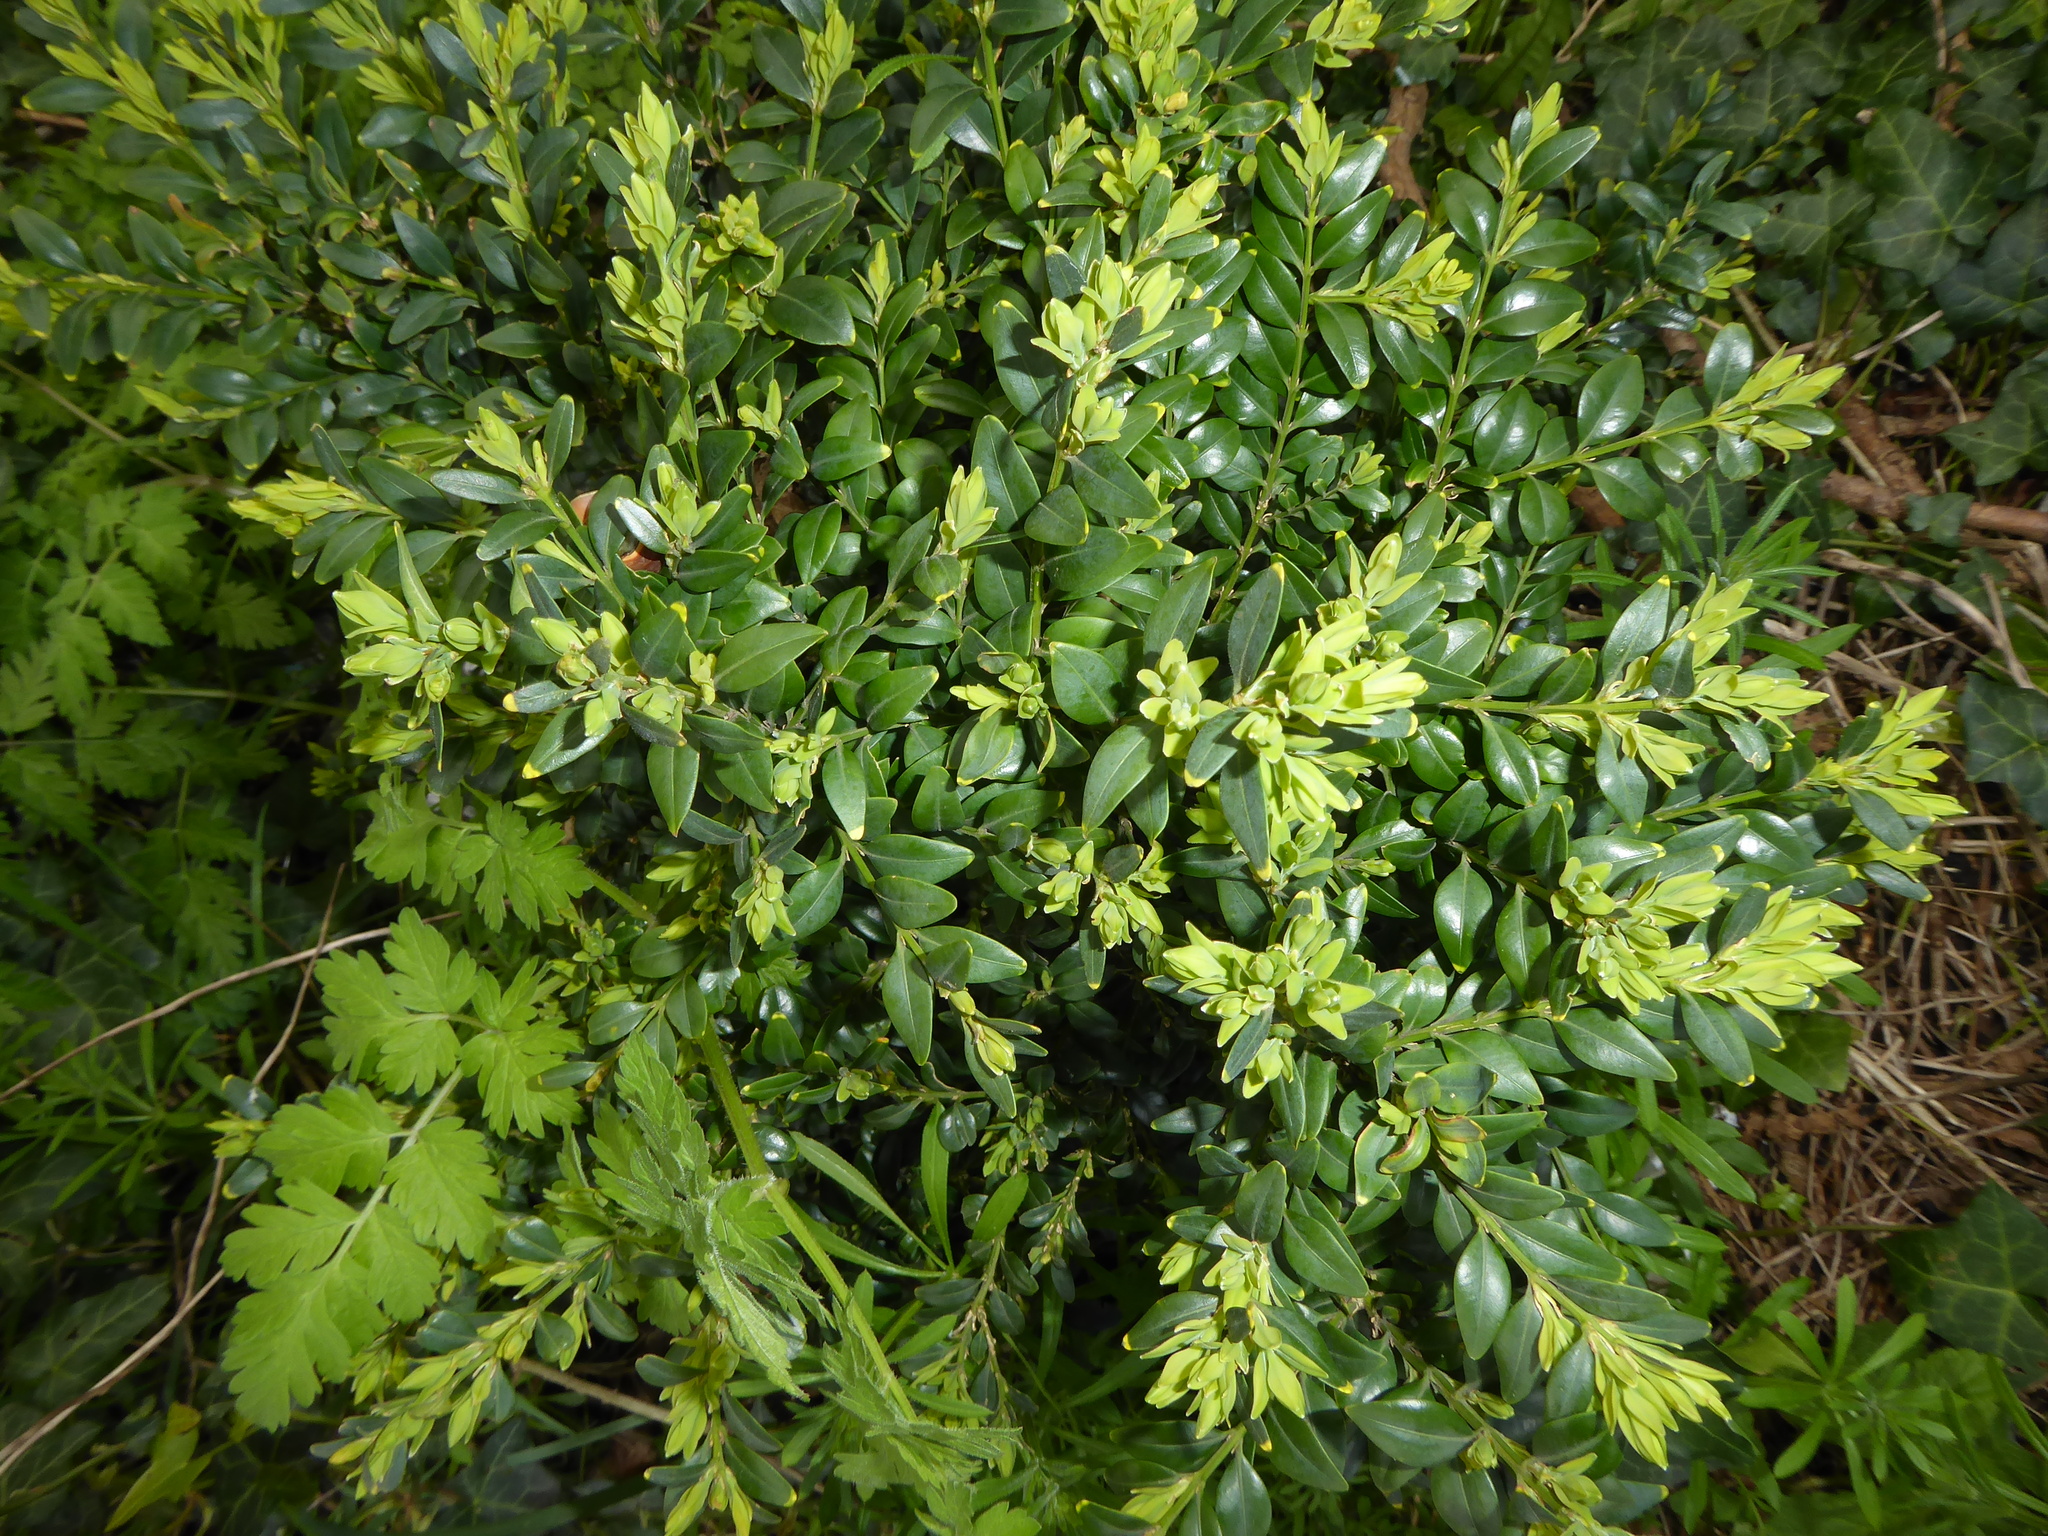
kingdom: Plantae
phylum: Tracheophyta
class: Magnoliopsida
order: Buxales
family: Buxaceae
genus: Buxus
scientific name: Buxus sempervirens
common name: Box
